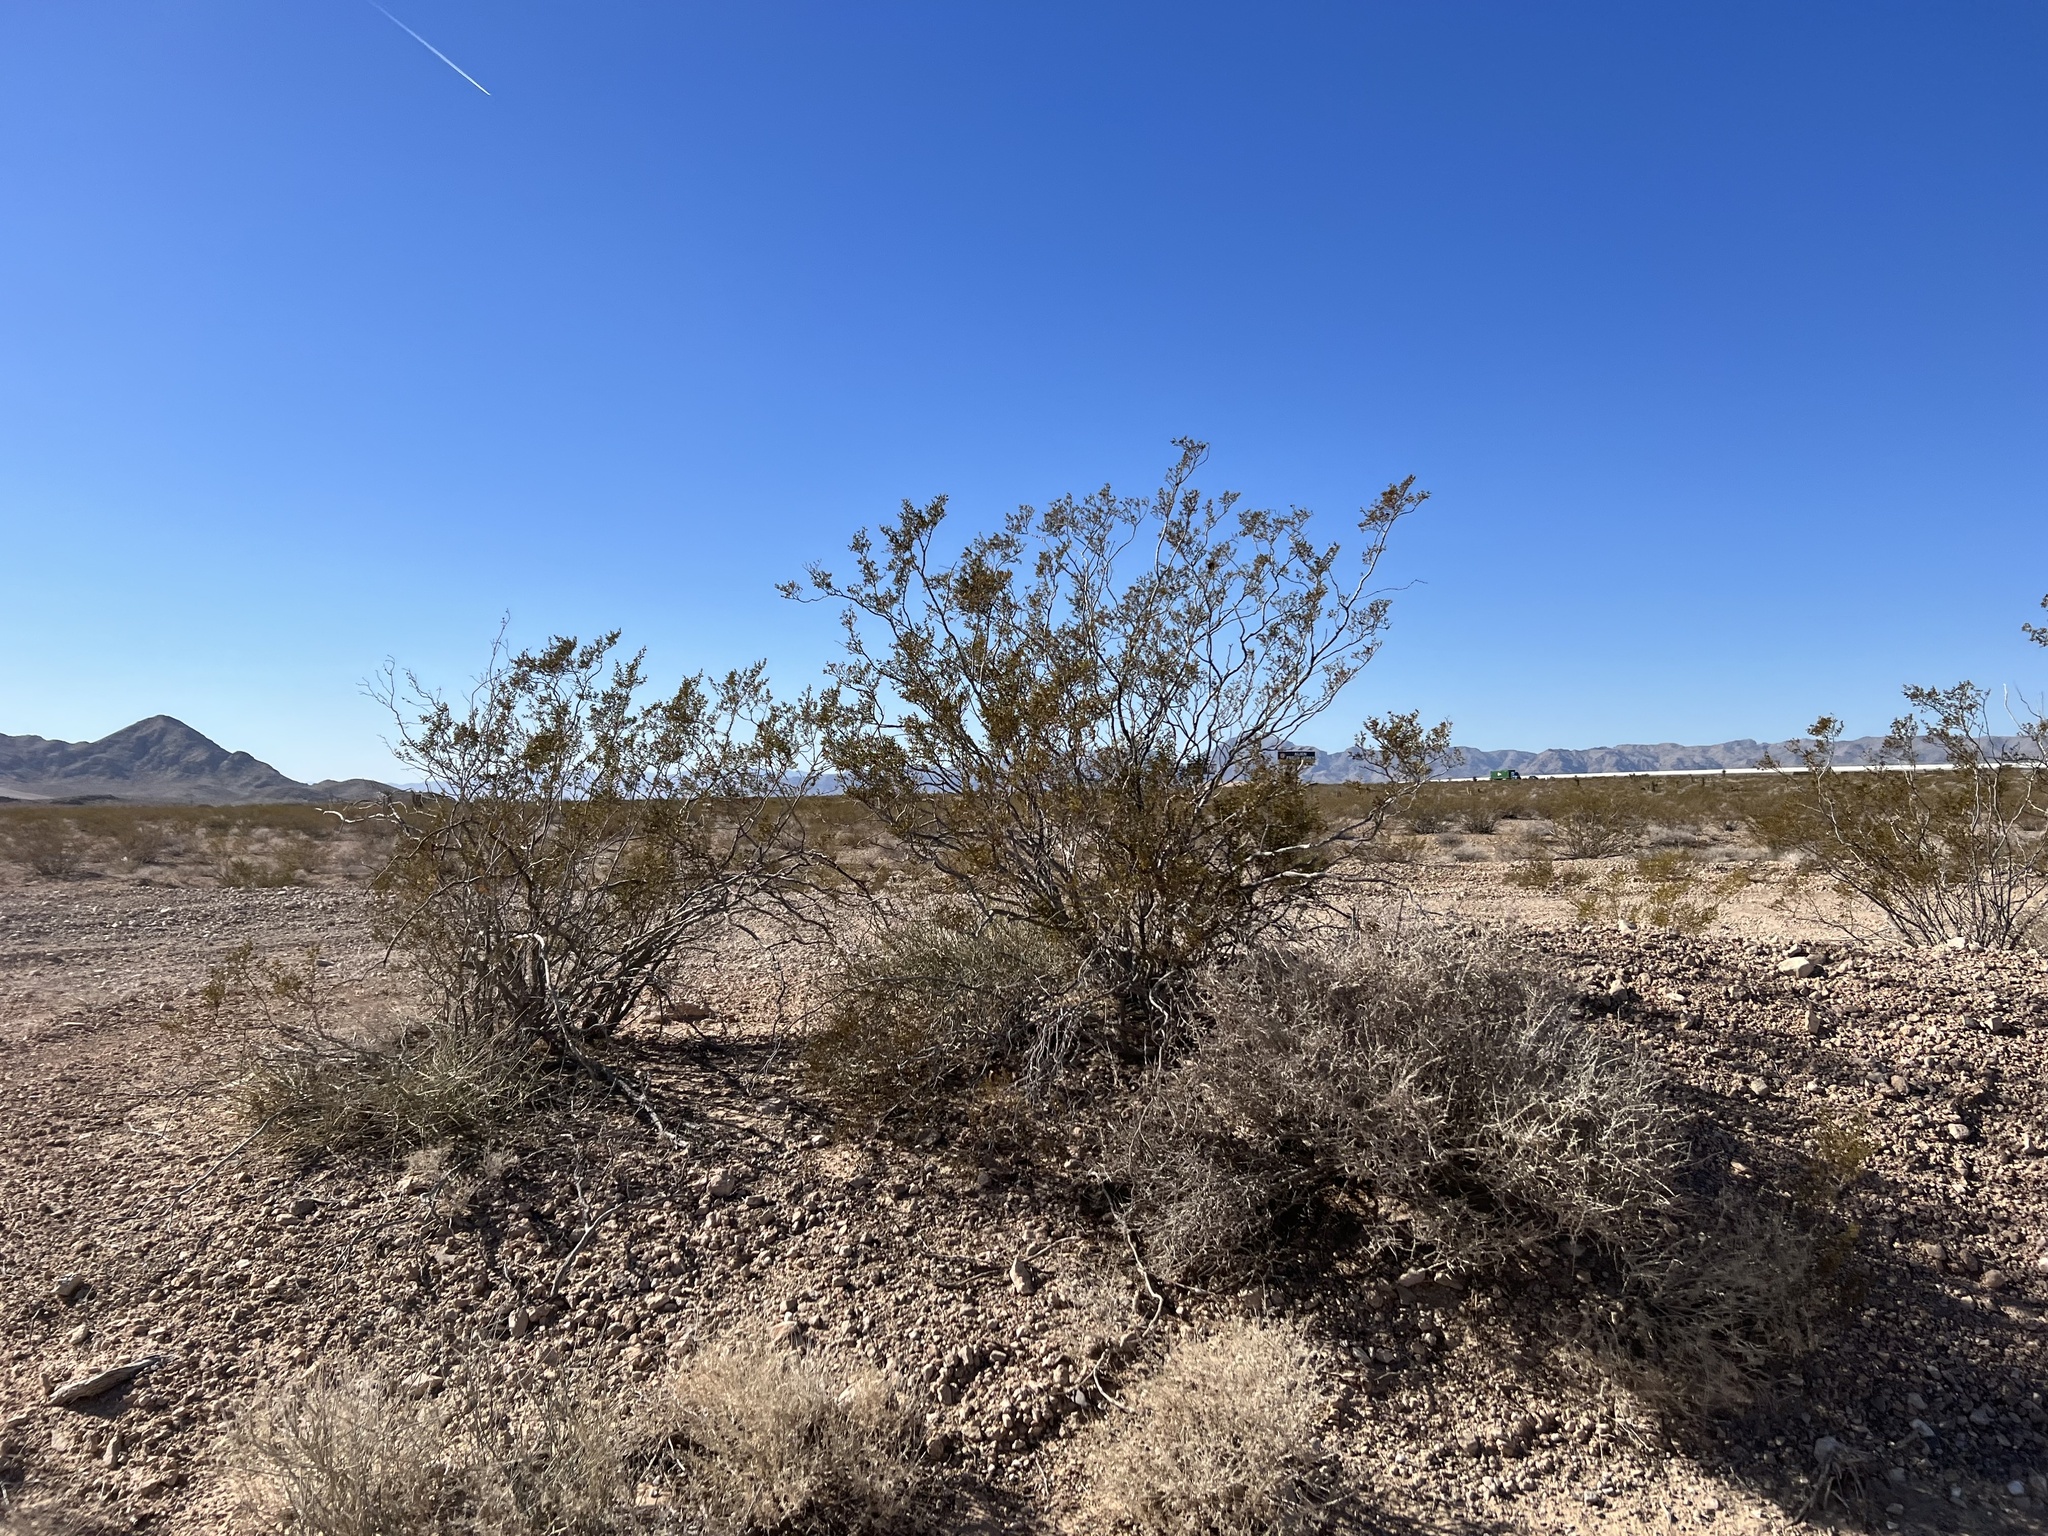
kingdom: Plantae
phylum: Tracheophyta
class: Magnoliopsida
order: Zygophyllales
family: Zygophyllaceae
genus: Larrea
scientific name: Larrea tridentata
